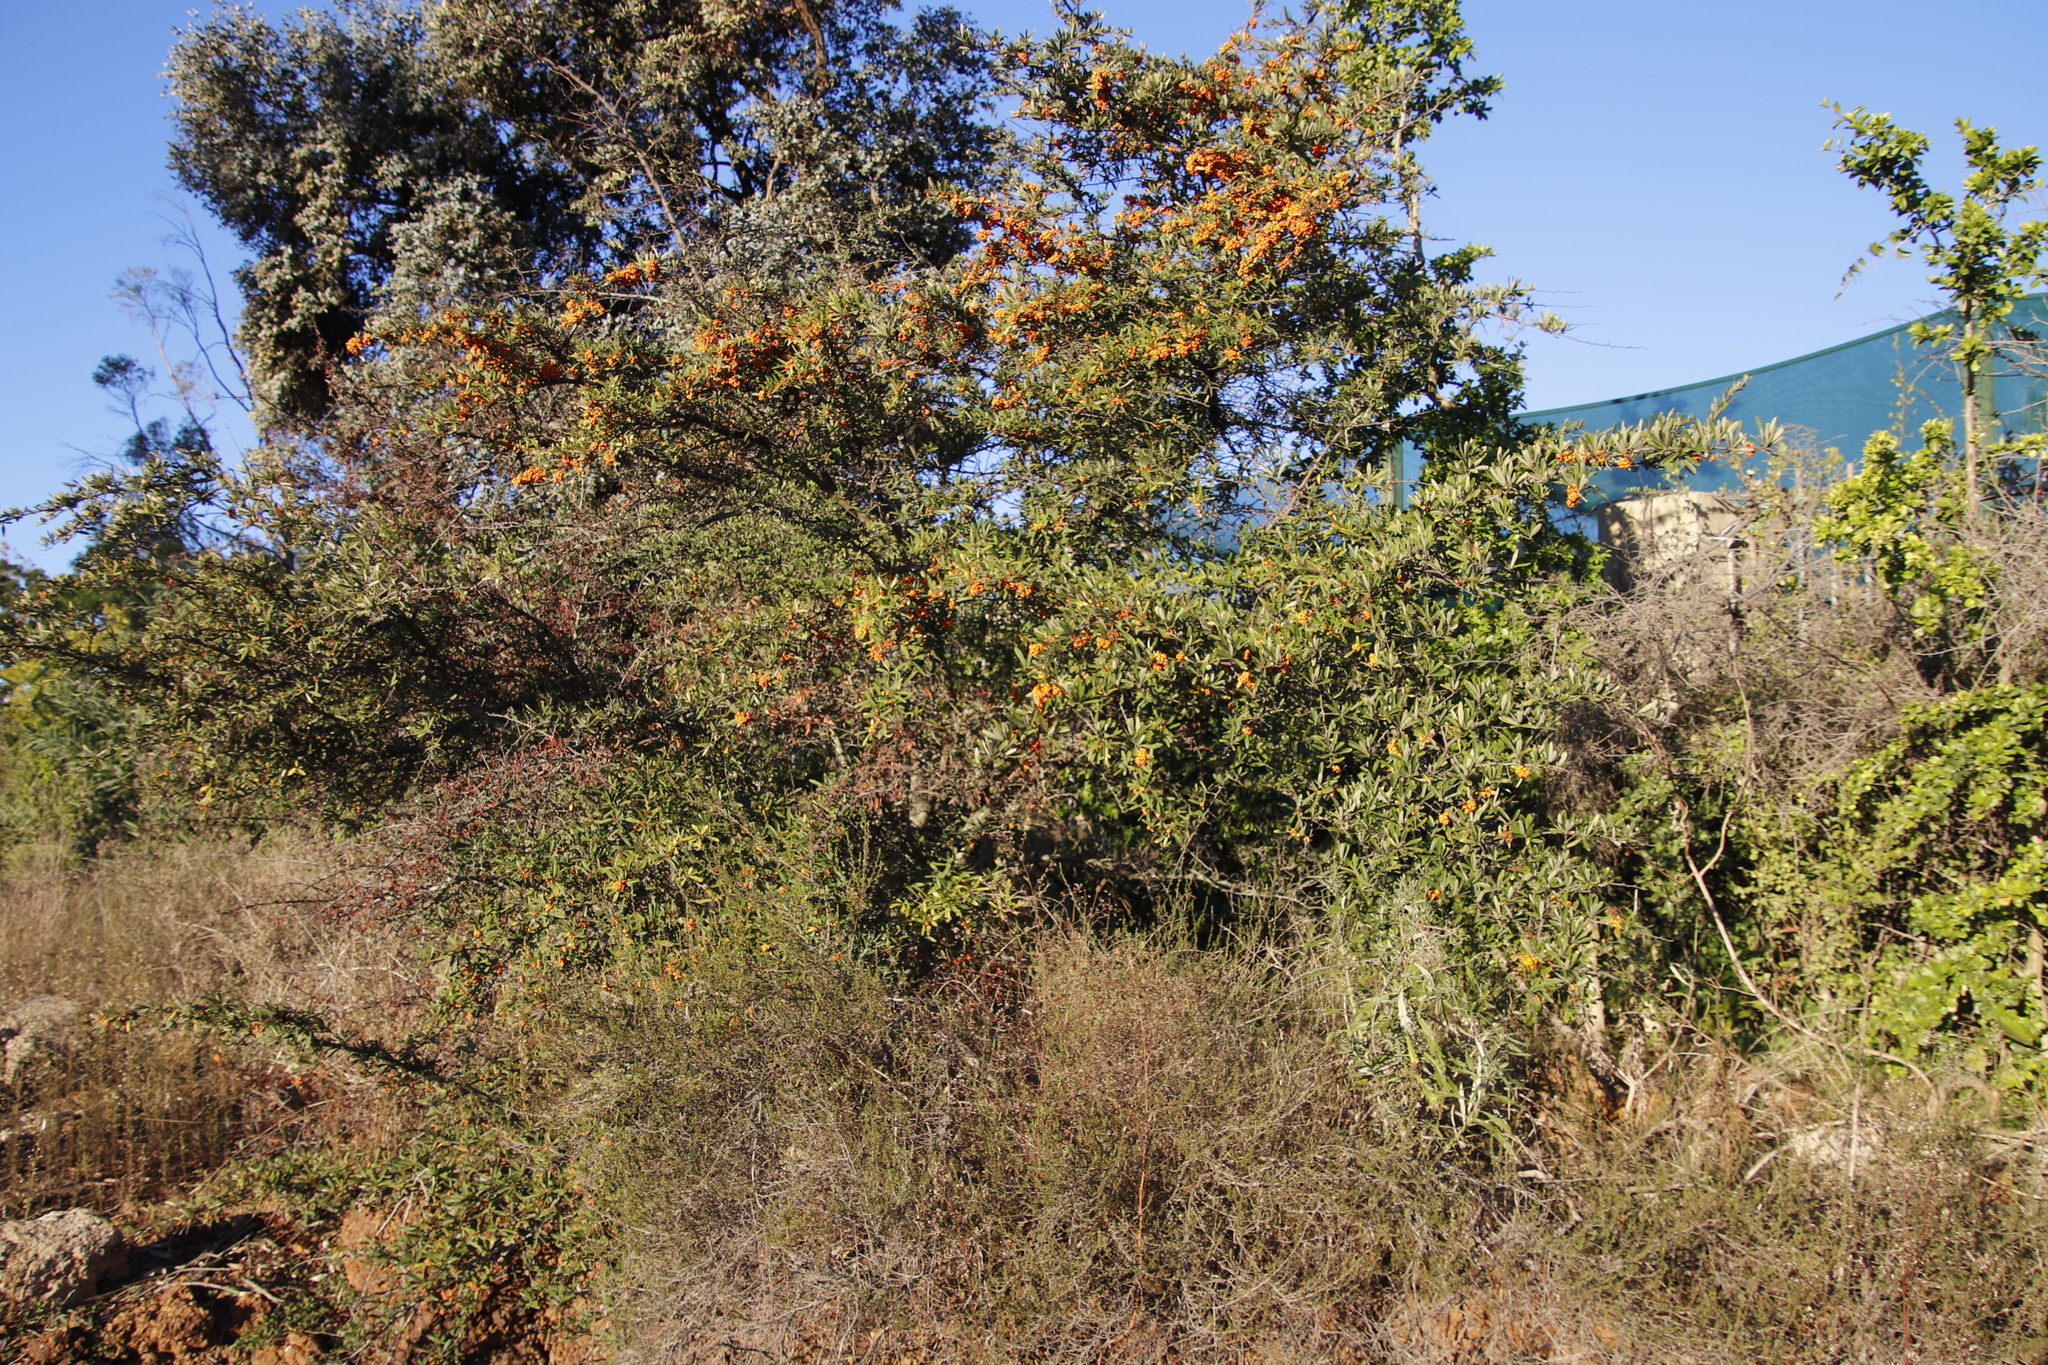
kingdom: Plantae
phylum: Tracheophyta
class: Magnoliopsida
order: Rosales
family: Rosaceae
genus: Pyracantha
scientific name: Pyracantha angustifolia
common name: Narrowleaf firethorn
